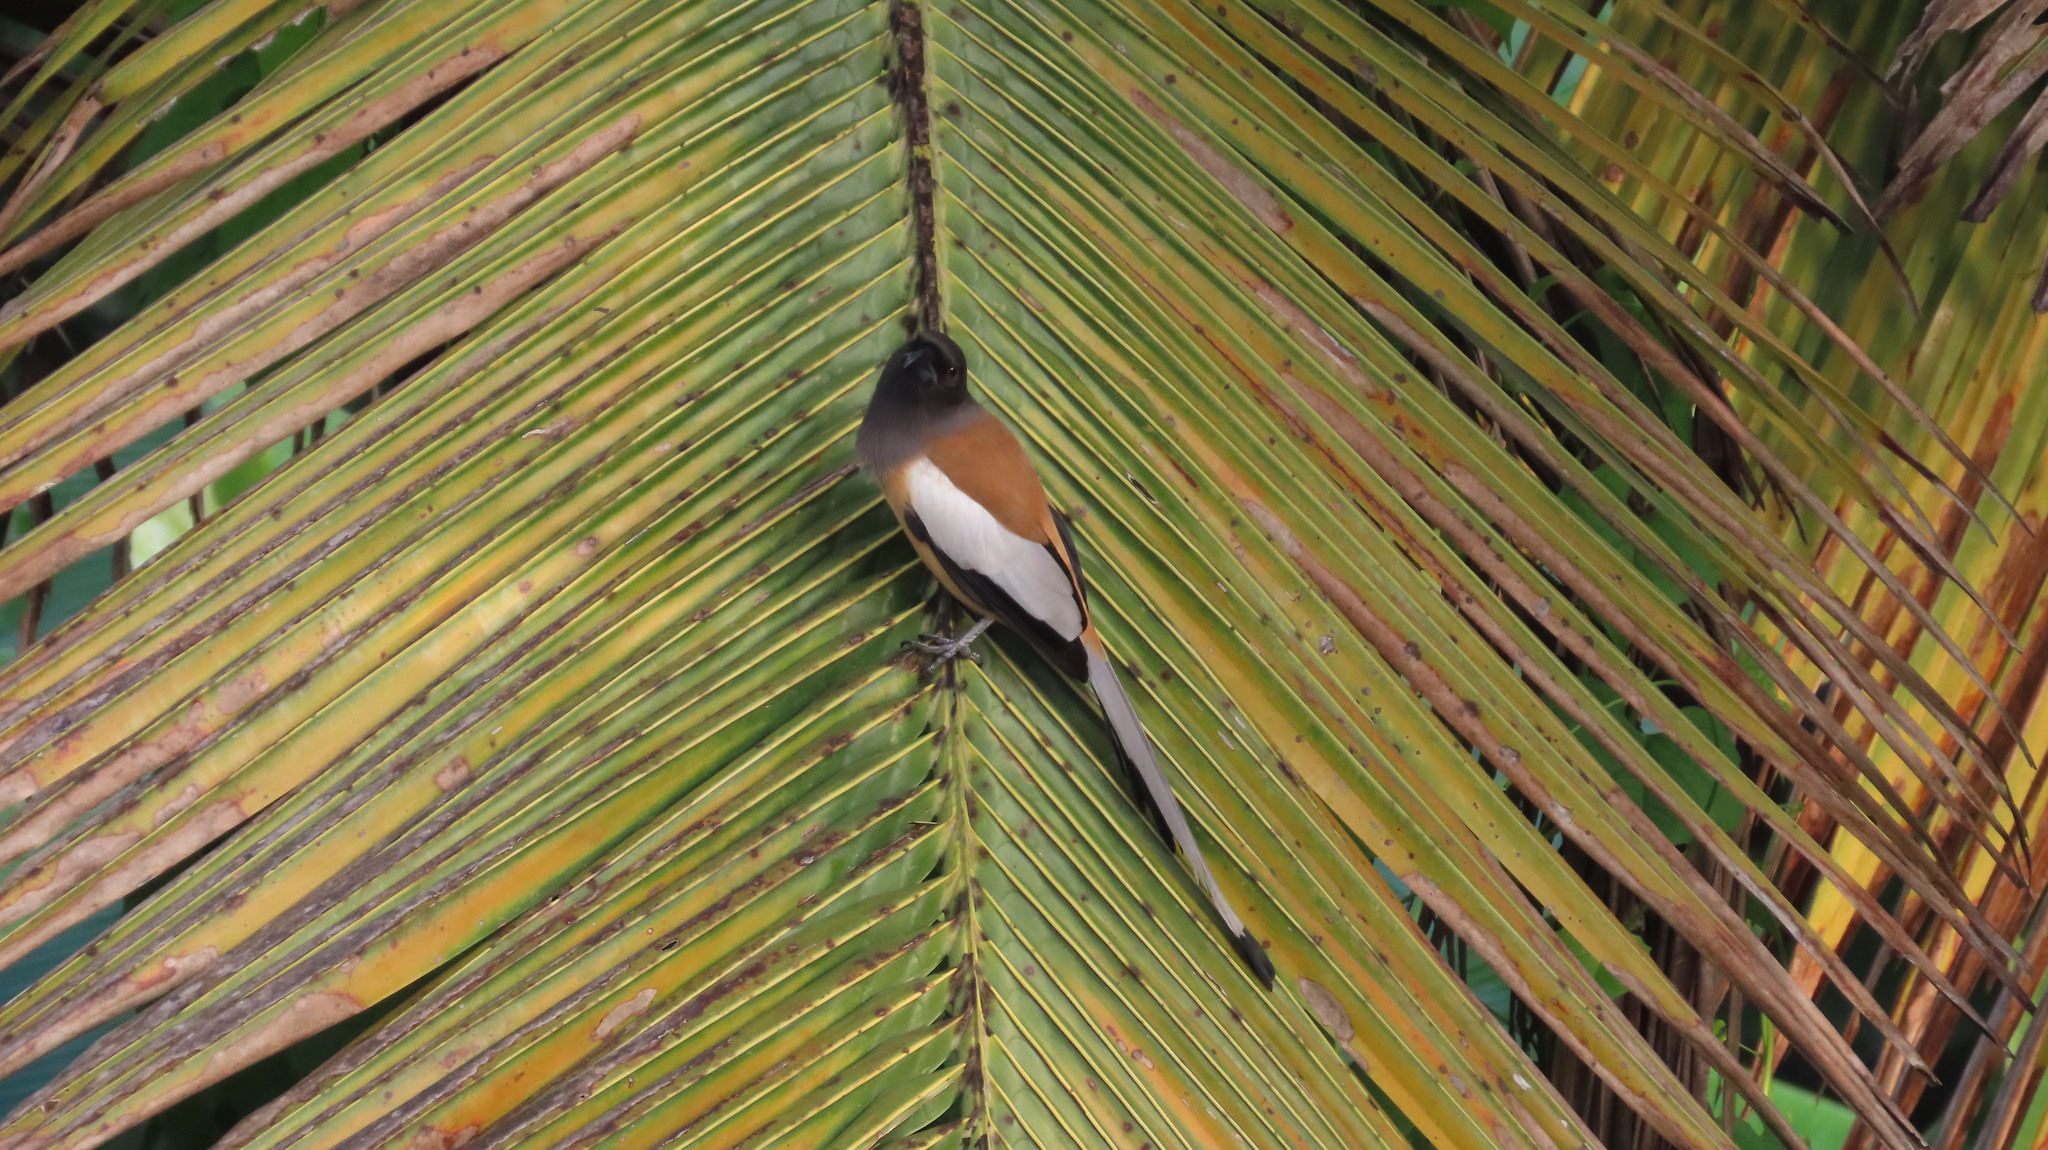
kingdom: Animalia
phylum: Chordata
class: Aves
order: Passeriformes
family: Corvidae
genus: Dendrocitta
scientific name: Dendrocitta vagabunda
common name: Rufous treepie
